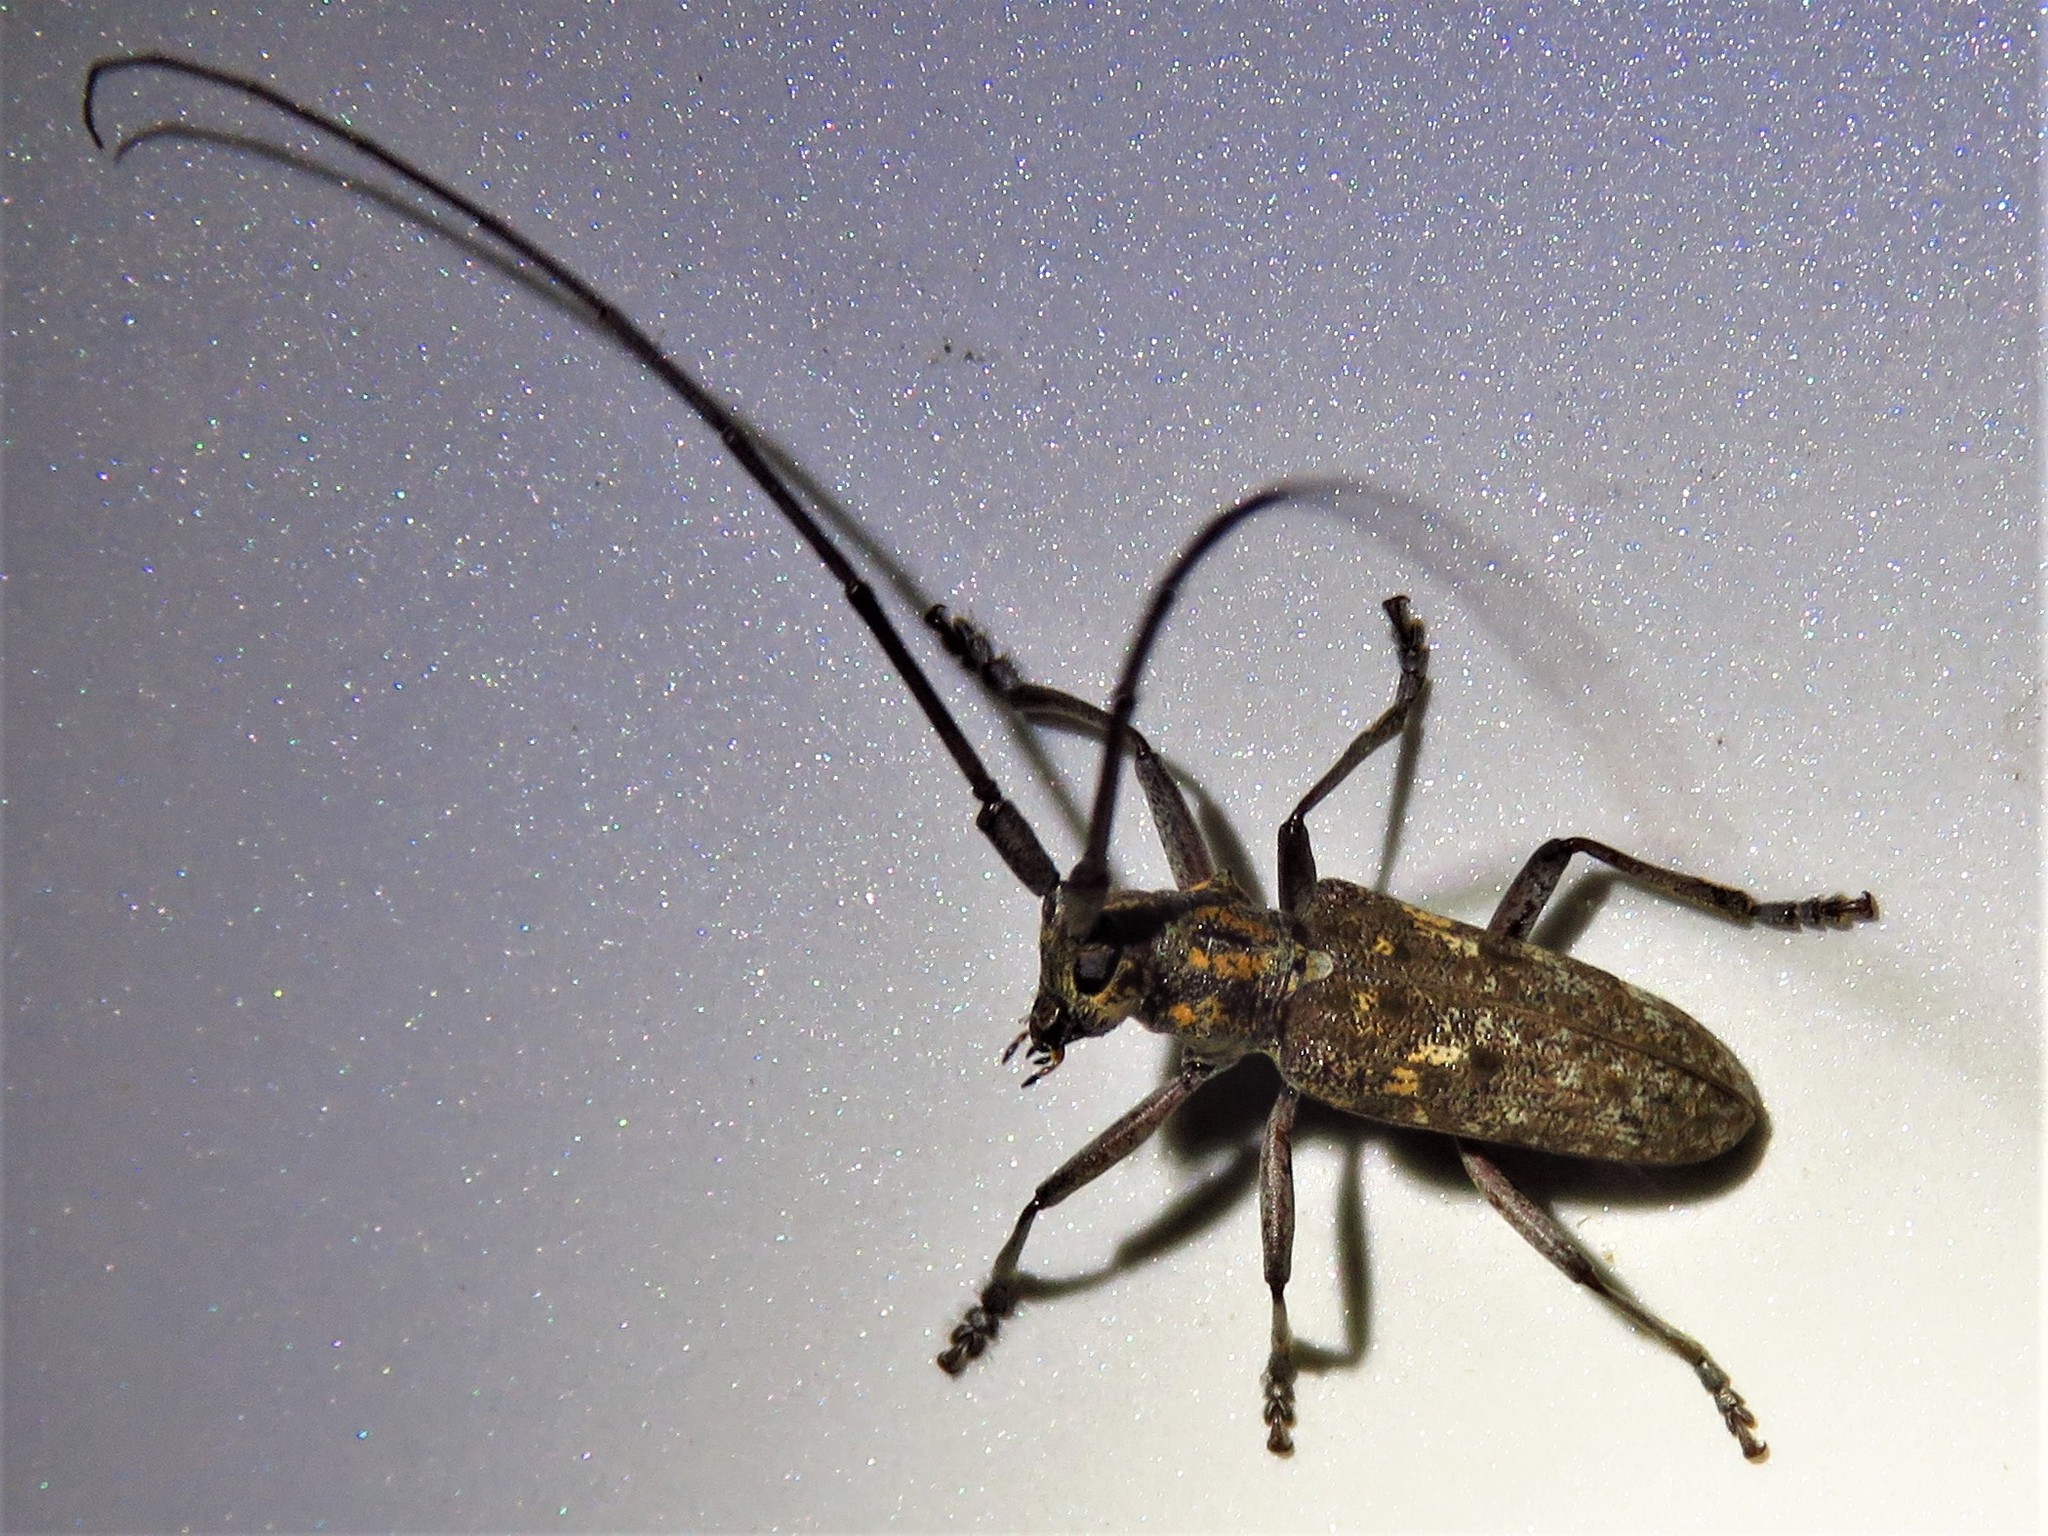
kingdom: Animalia
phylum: Arthropoda
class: Insecta
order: Coleoptera
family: Cerambycidae
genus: Monochamus
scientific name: Monochamus carolinensis
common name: Carolina pine sawyer
